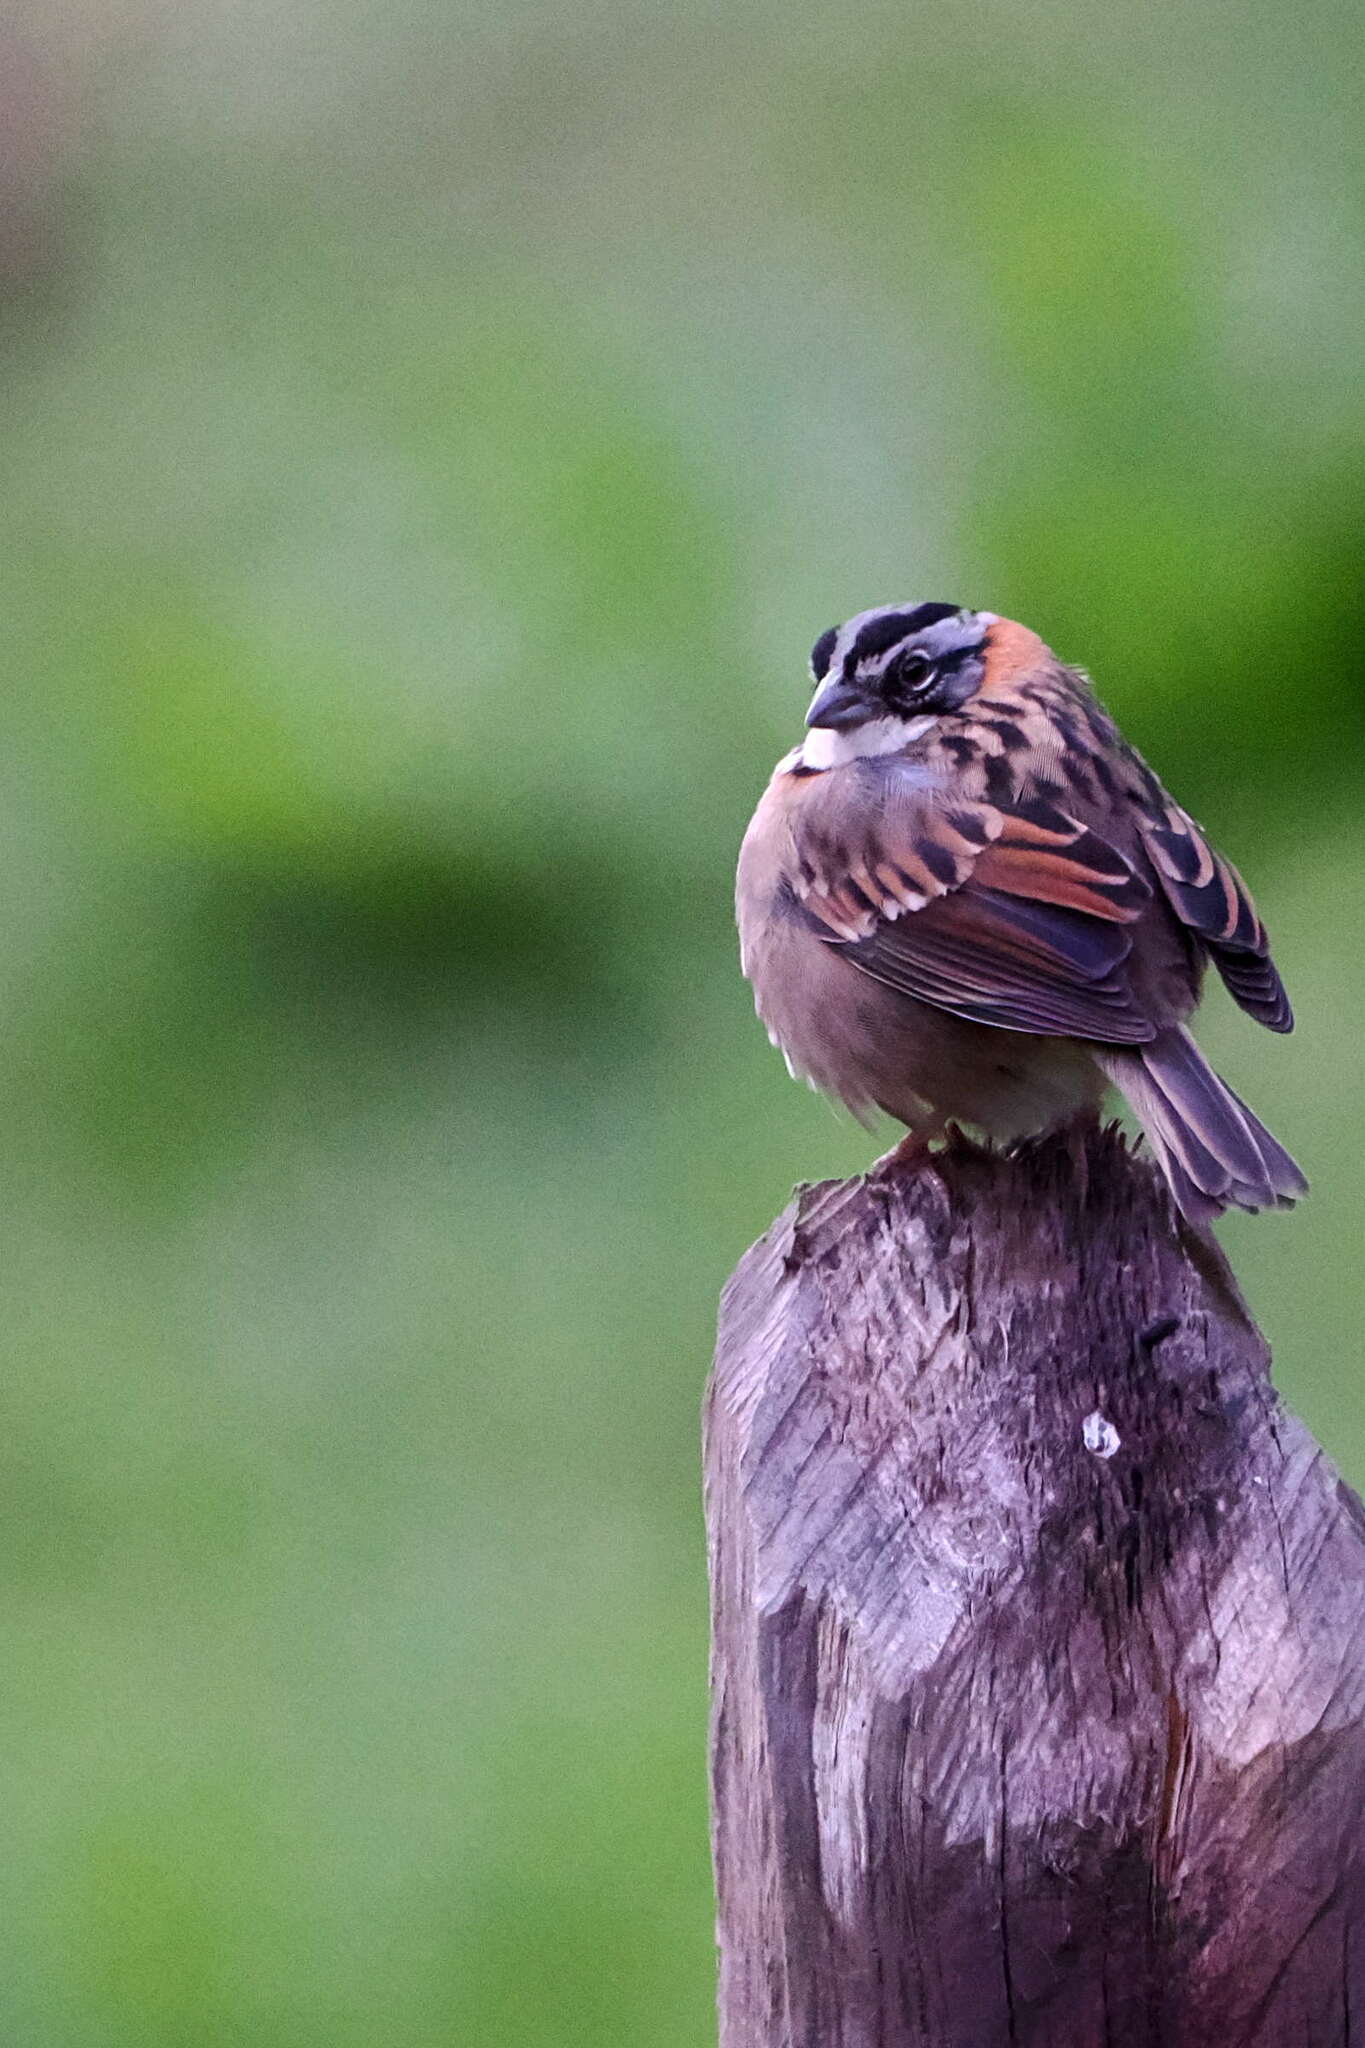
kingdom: Animalia
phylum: Chordata
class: Aves
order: Passeriformes
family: Passerellidae
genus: Zonotrichia
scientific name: Zonotrichia capensis
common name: Rufous-collared sparrow
